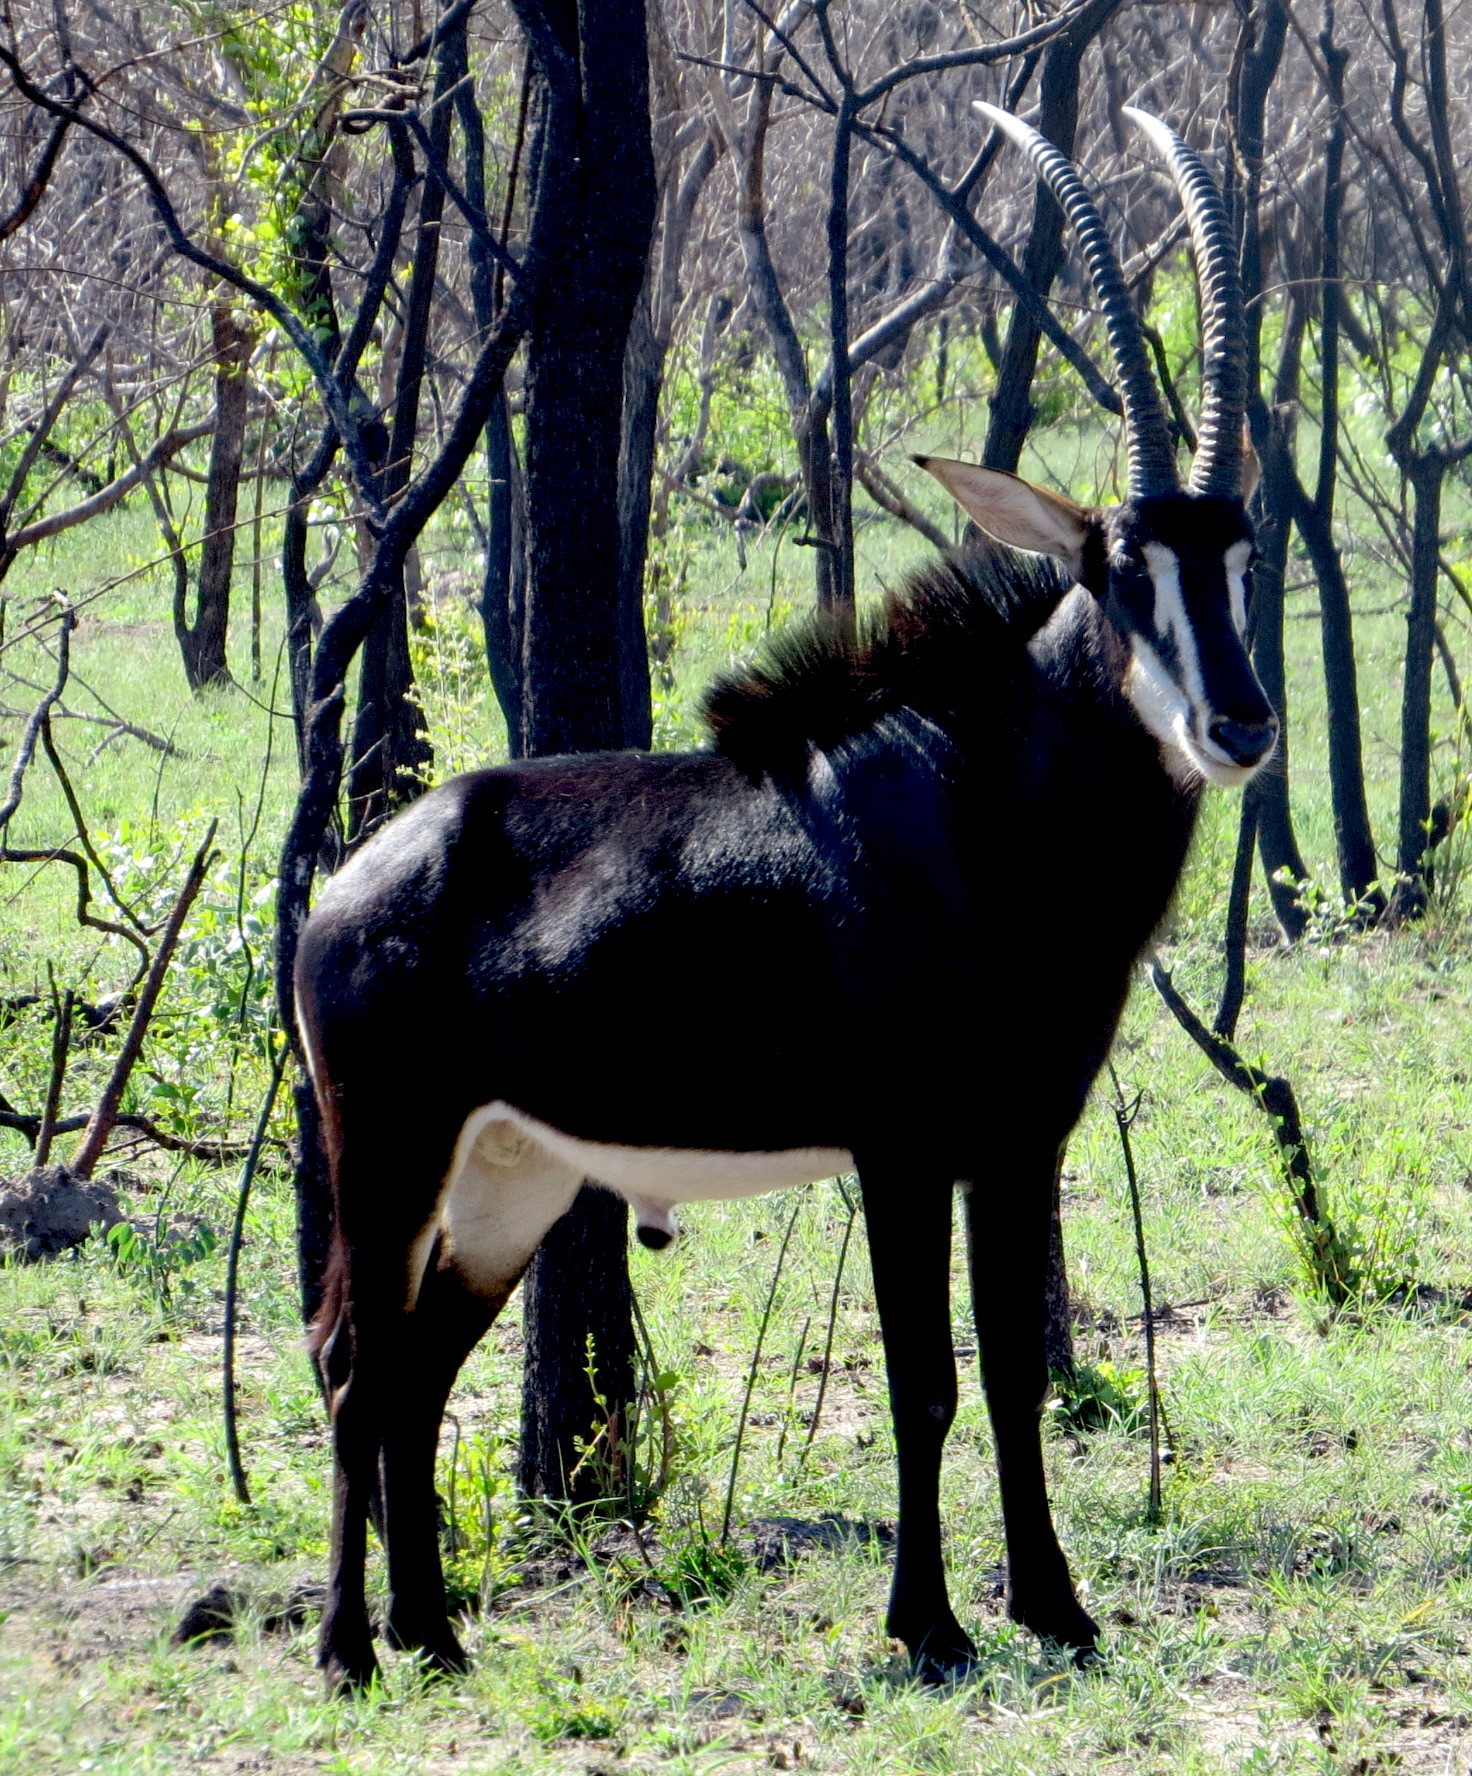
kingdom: Animalia
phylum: Chordata
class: Mammalia
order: Artiodactyla
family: Bovidae
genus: Hippotragus
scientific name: Hippotragus niger
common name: Sable antelope
